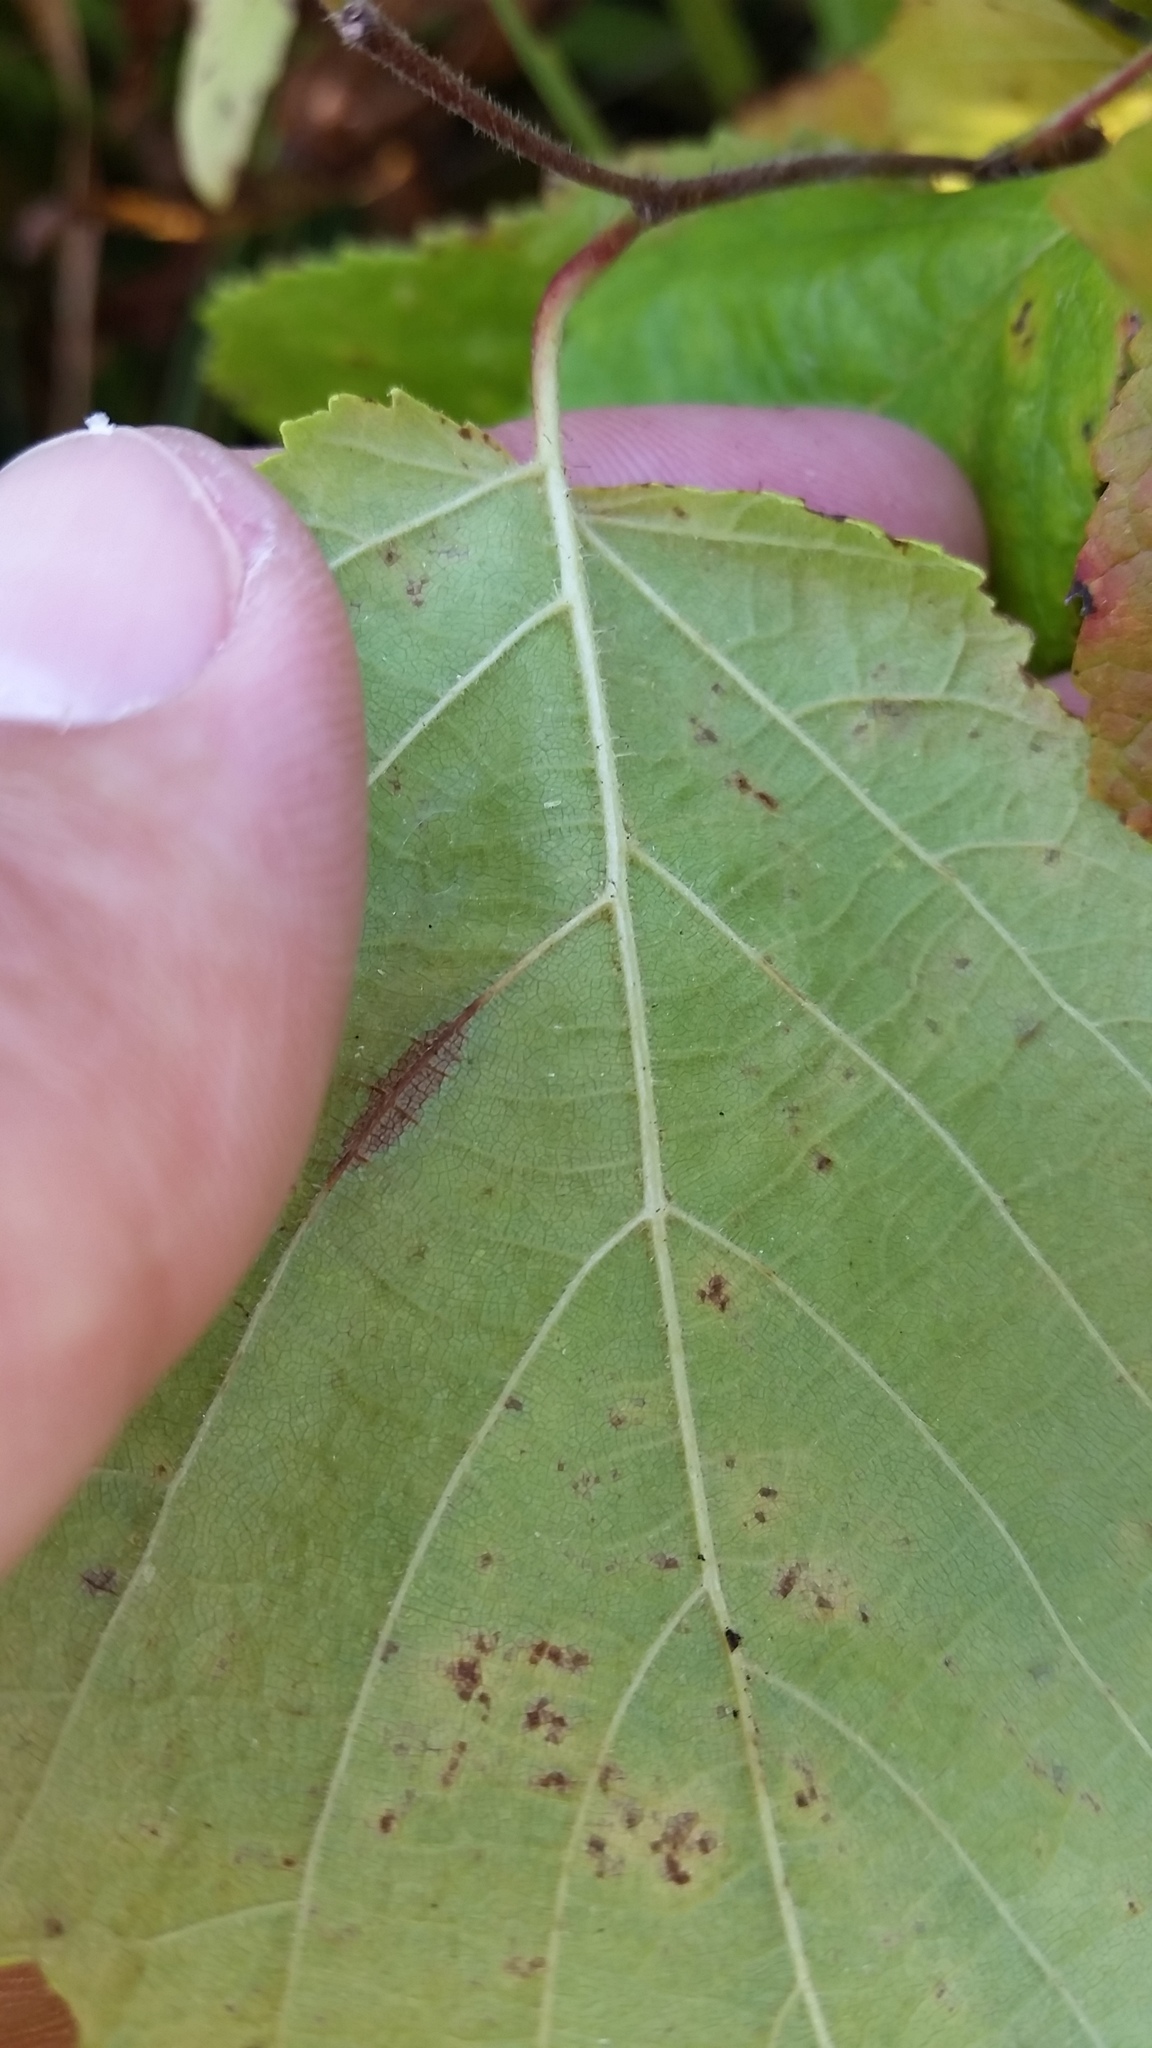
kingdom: Plantae
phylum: Tracheophyta
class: Magnoliopsida
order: Fagales
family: Betulaceae
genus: Corylus
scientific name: Corylus americana
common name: American hazel
